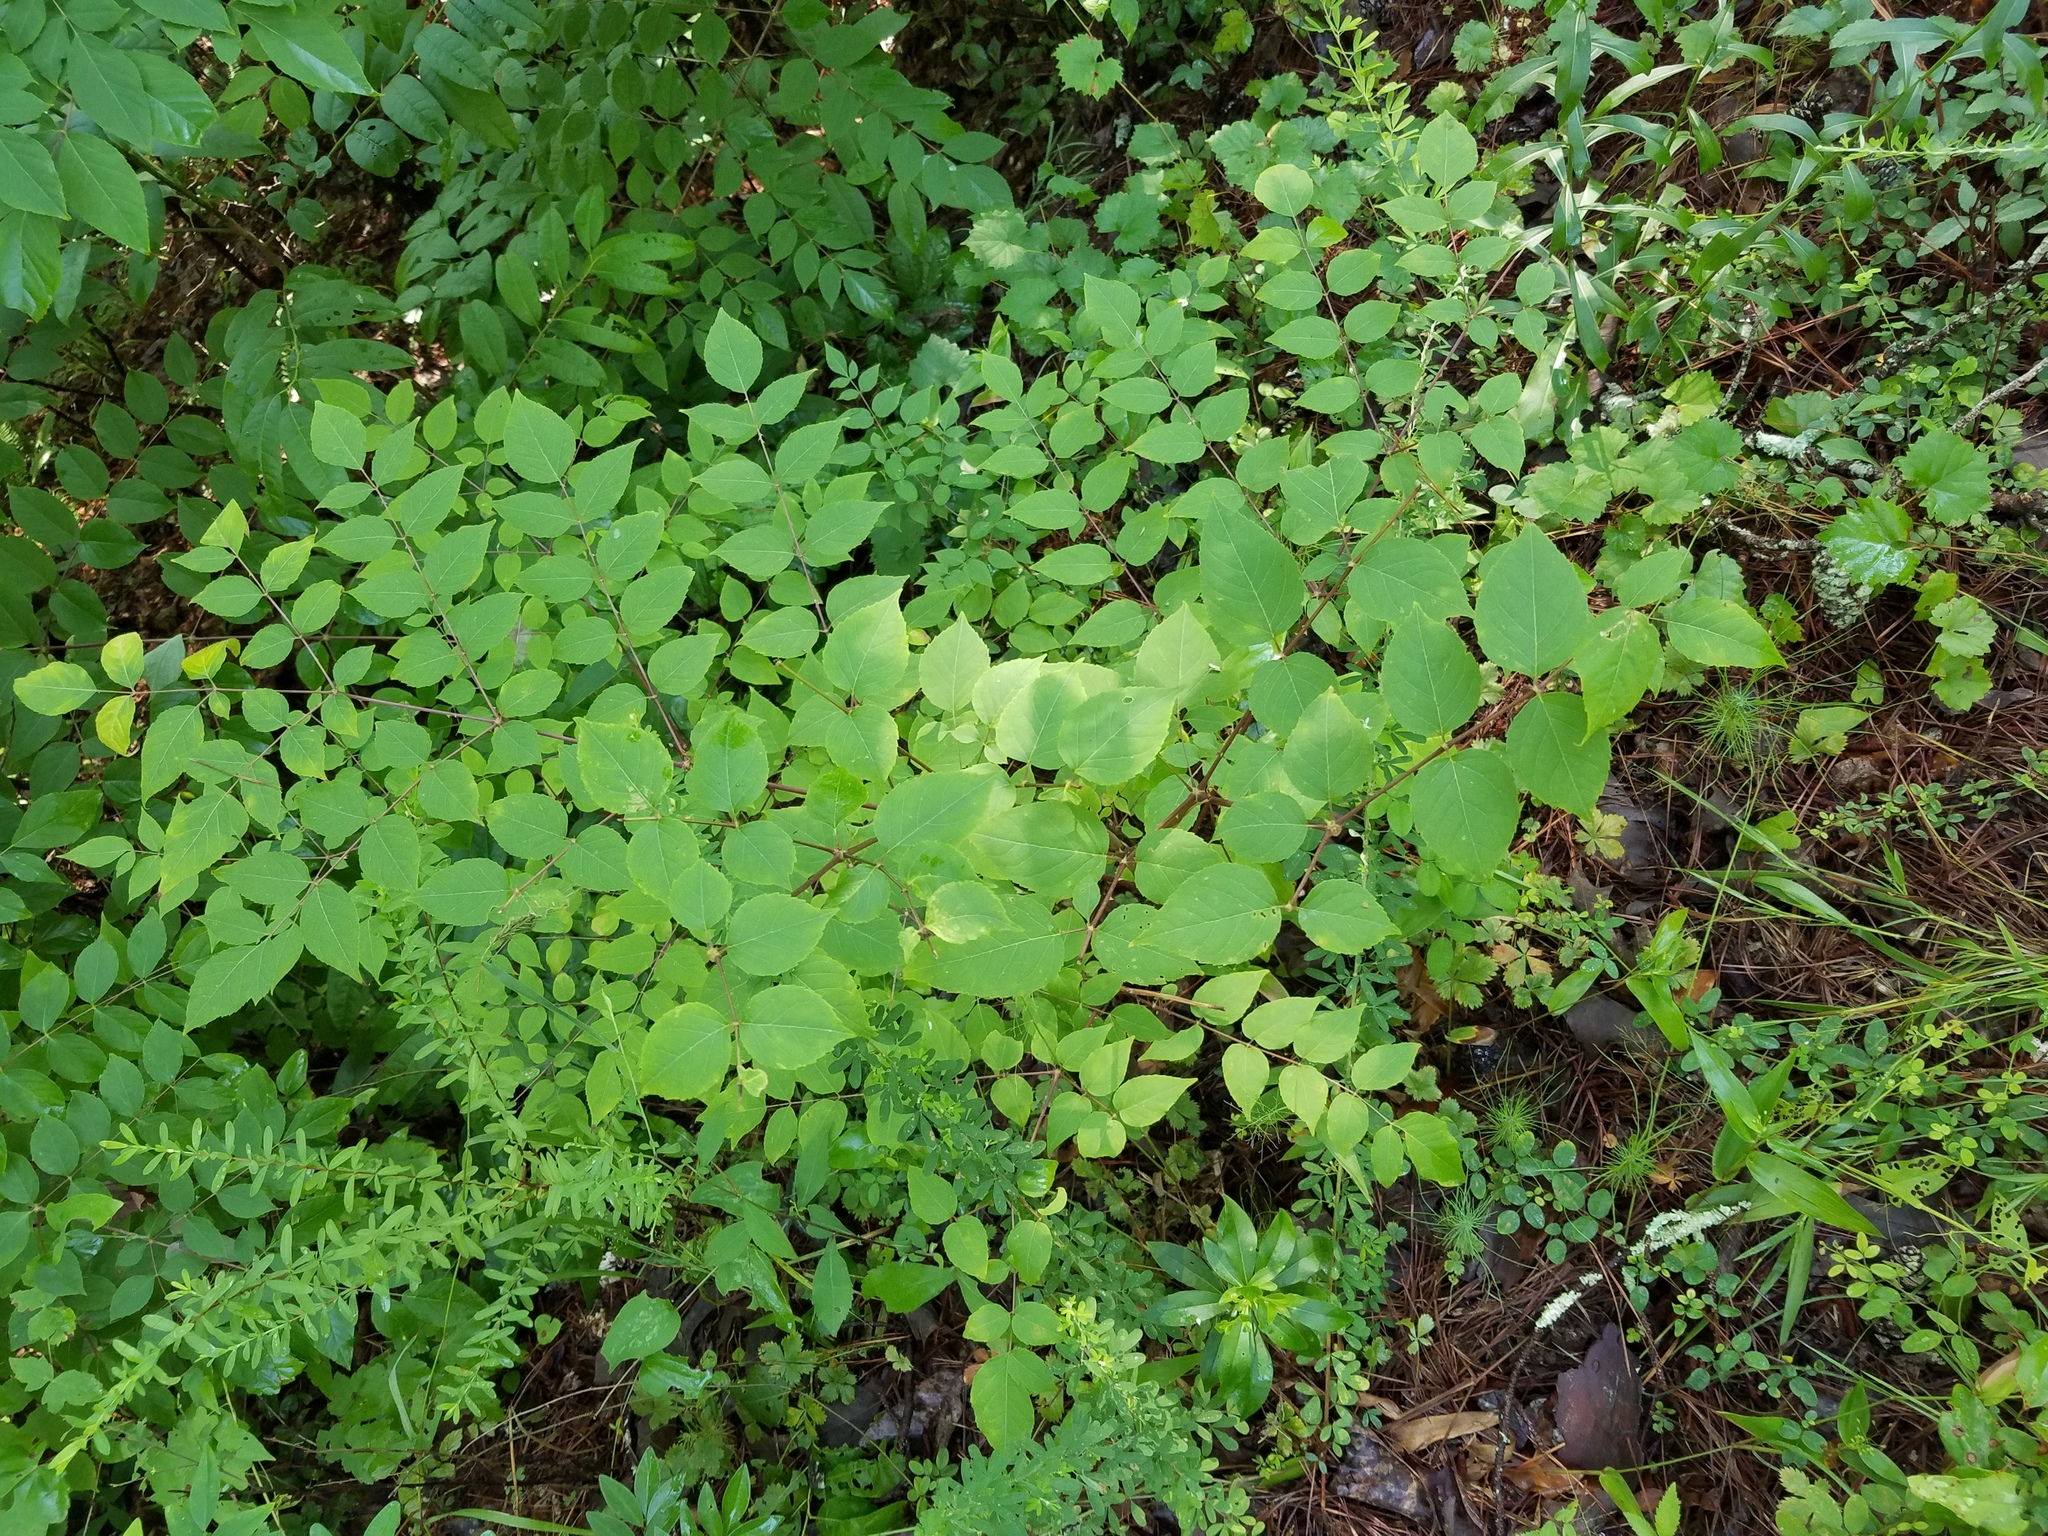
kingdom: Plantae
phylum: Tracheophyta
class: Magnoliopsida
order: Apiales
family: Araliaceae
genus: Aralia
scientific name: Aralia spinosa
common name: Hercules'-club
